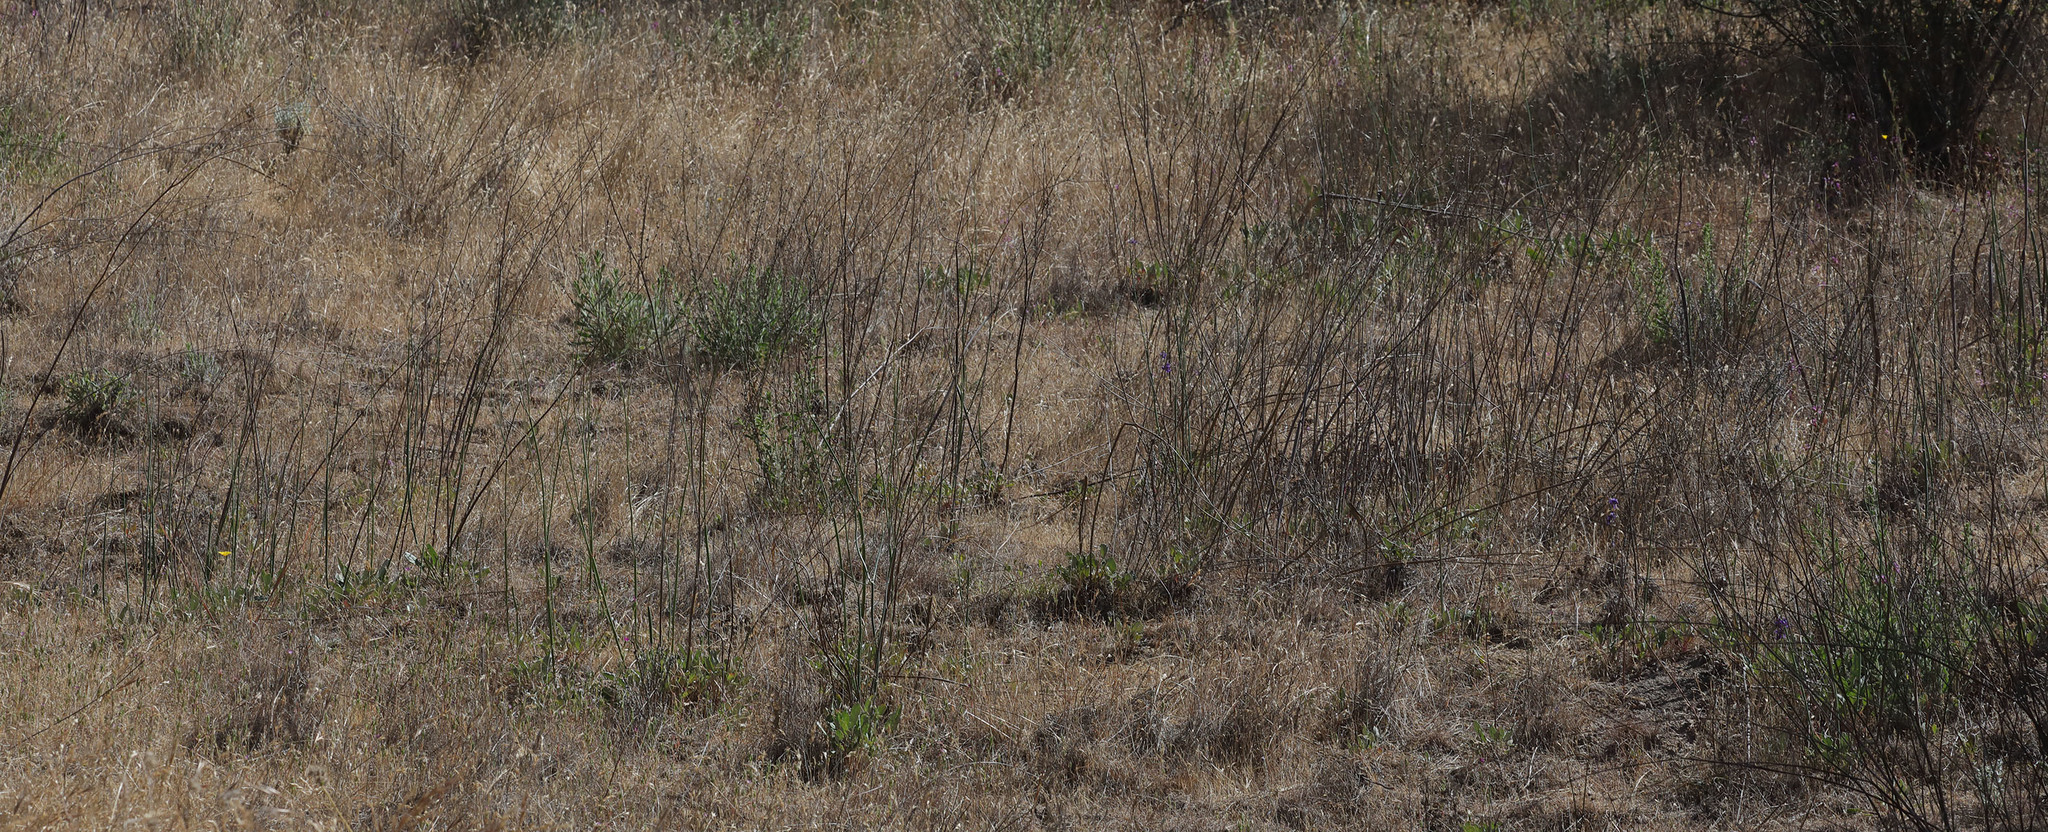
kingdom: Plantae
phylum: Tracheophyta
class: Magnoliopsida
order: Caryophyllales
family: Polygonaceae
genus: Eriogonum
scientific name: Eriogonum nudum
